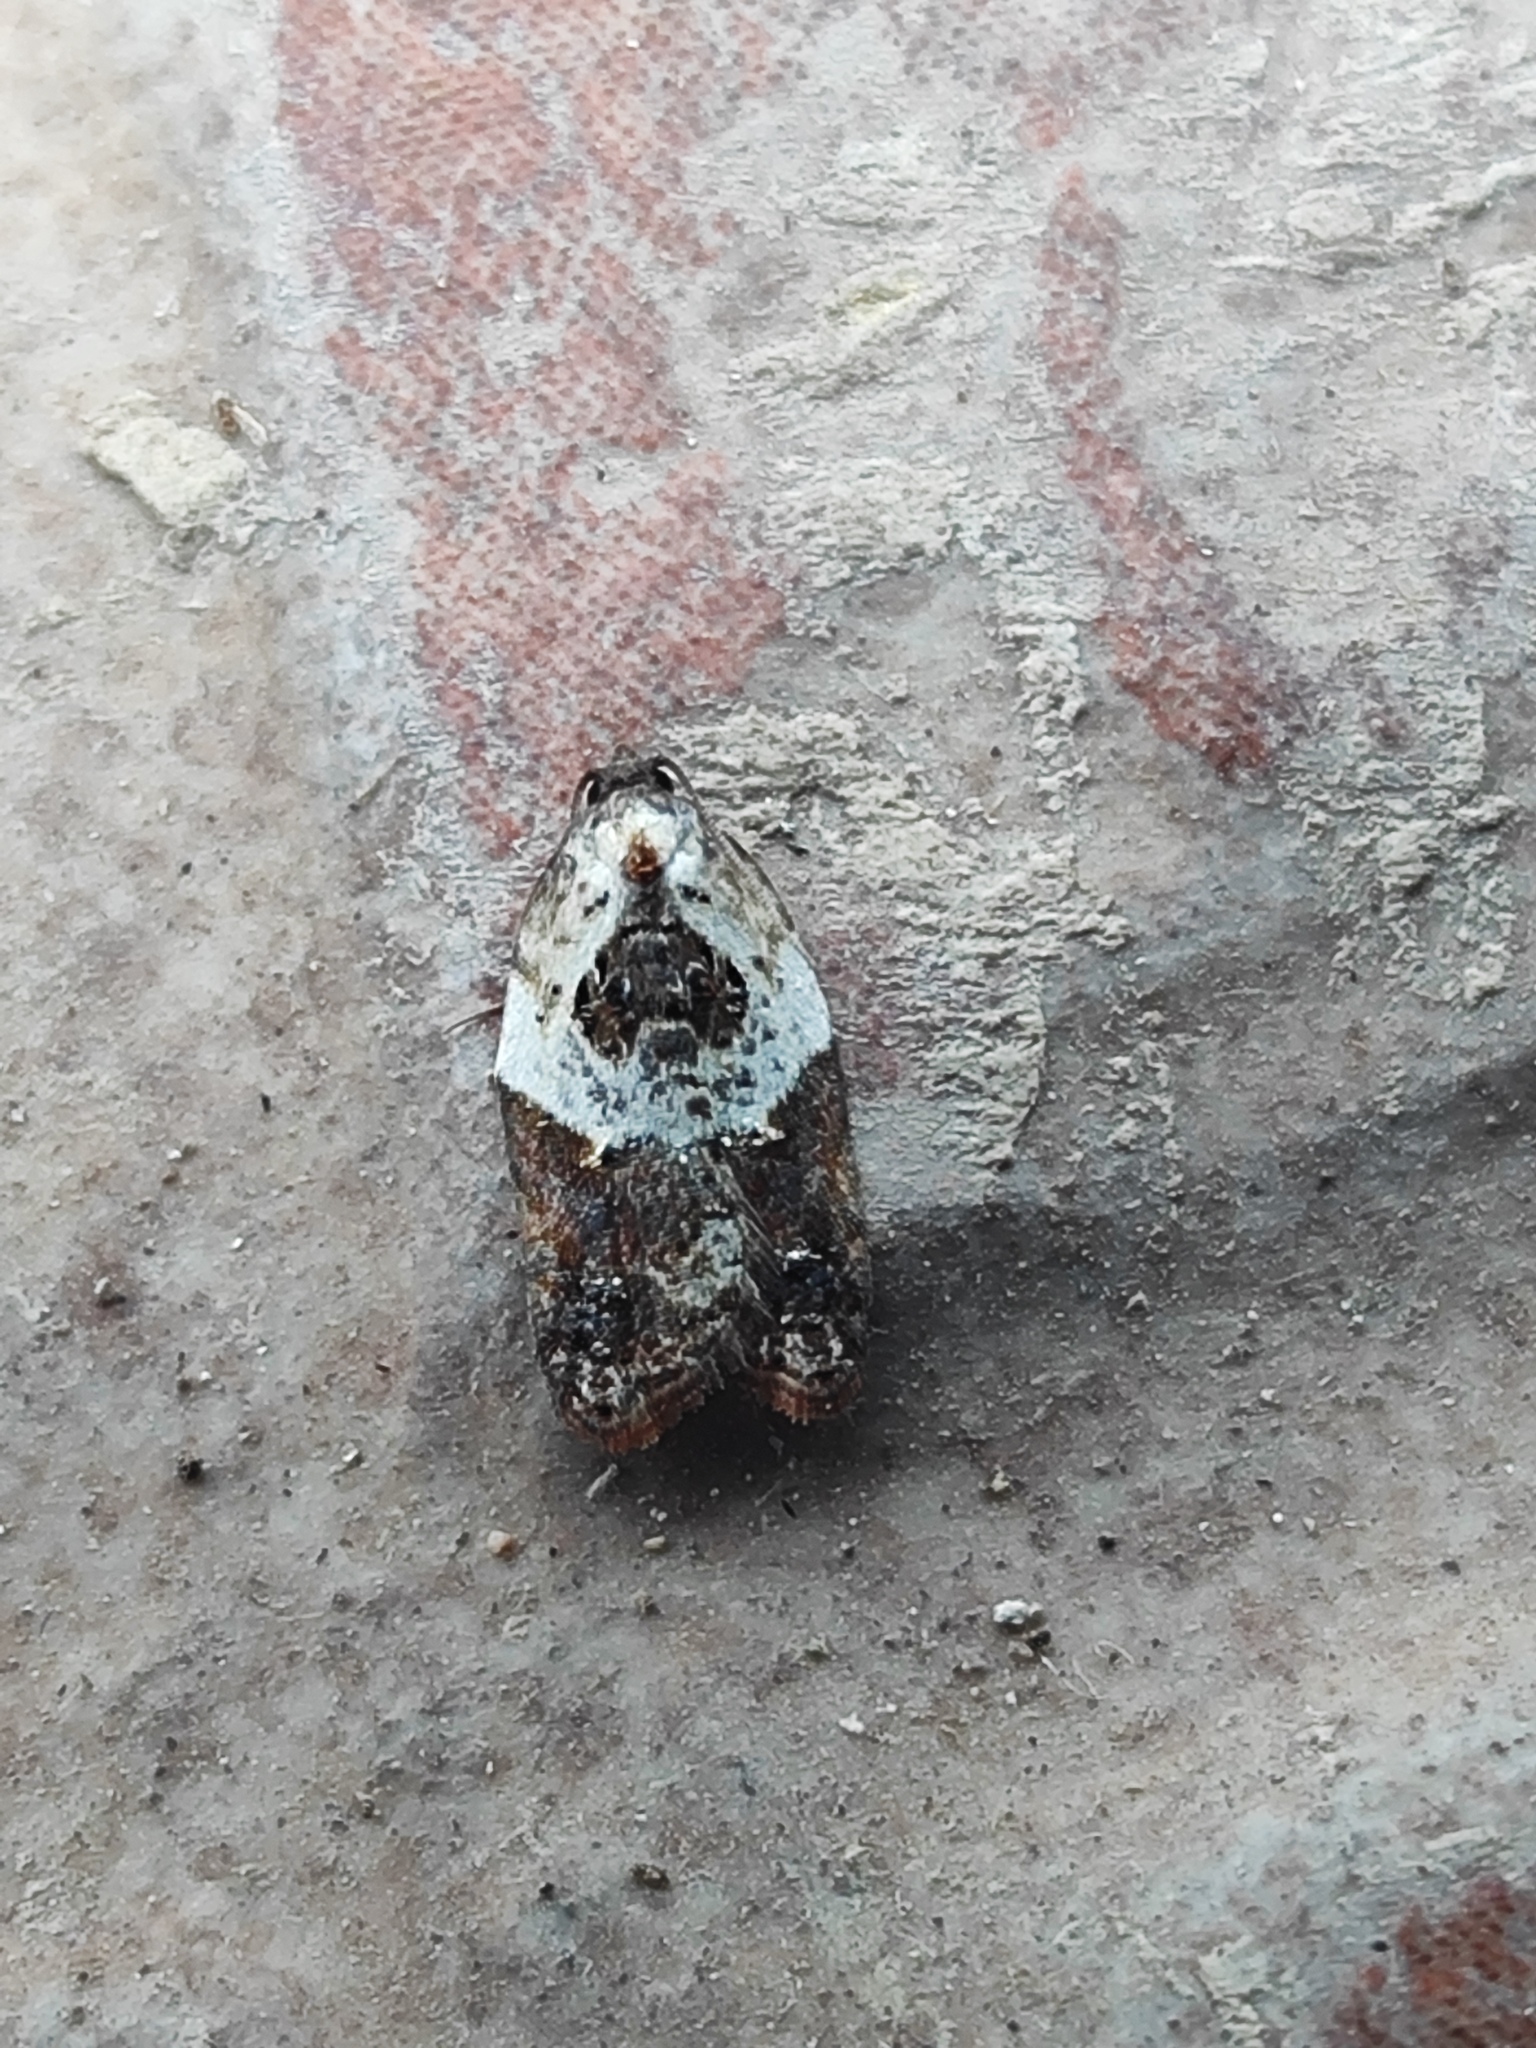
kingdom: Animalia
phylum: Arthropoda
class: Insecta
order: Lepidoptera
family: Tortricidae
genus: Acleris
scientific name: Acleris variegana
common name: Garden rose tortrix
